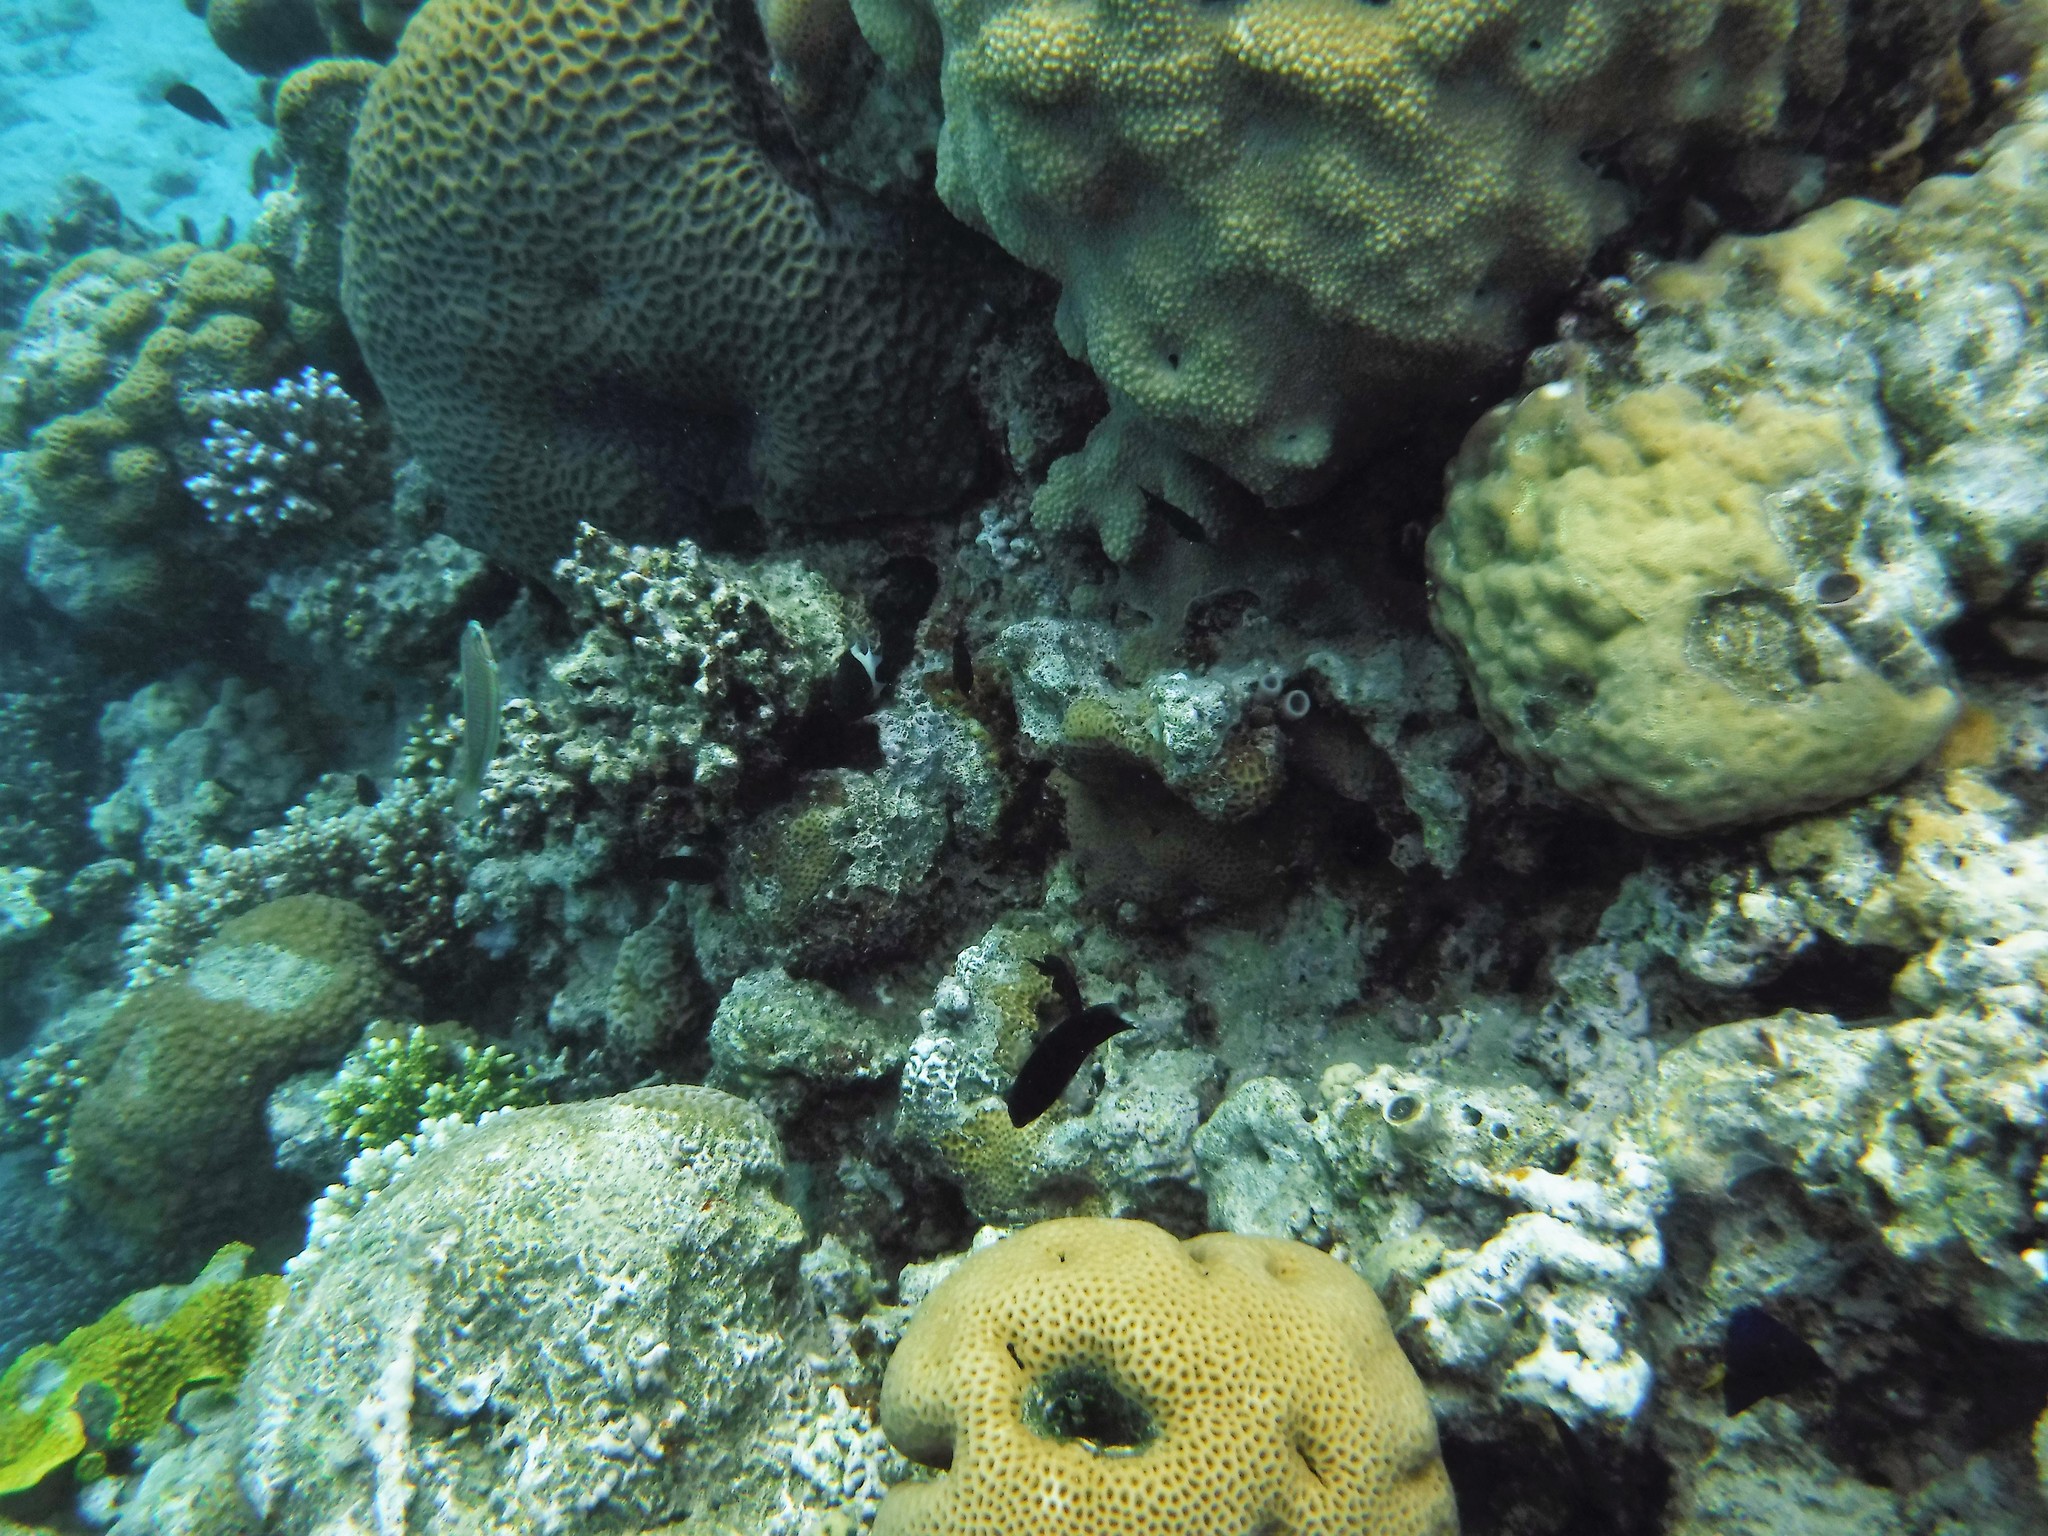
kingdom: Animalia
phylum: Cnidaria
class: Anthozoa
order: Scleractinia
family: Merulinidae
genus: Favites
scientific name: Favites
